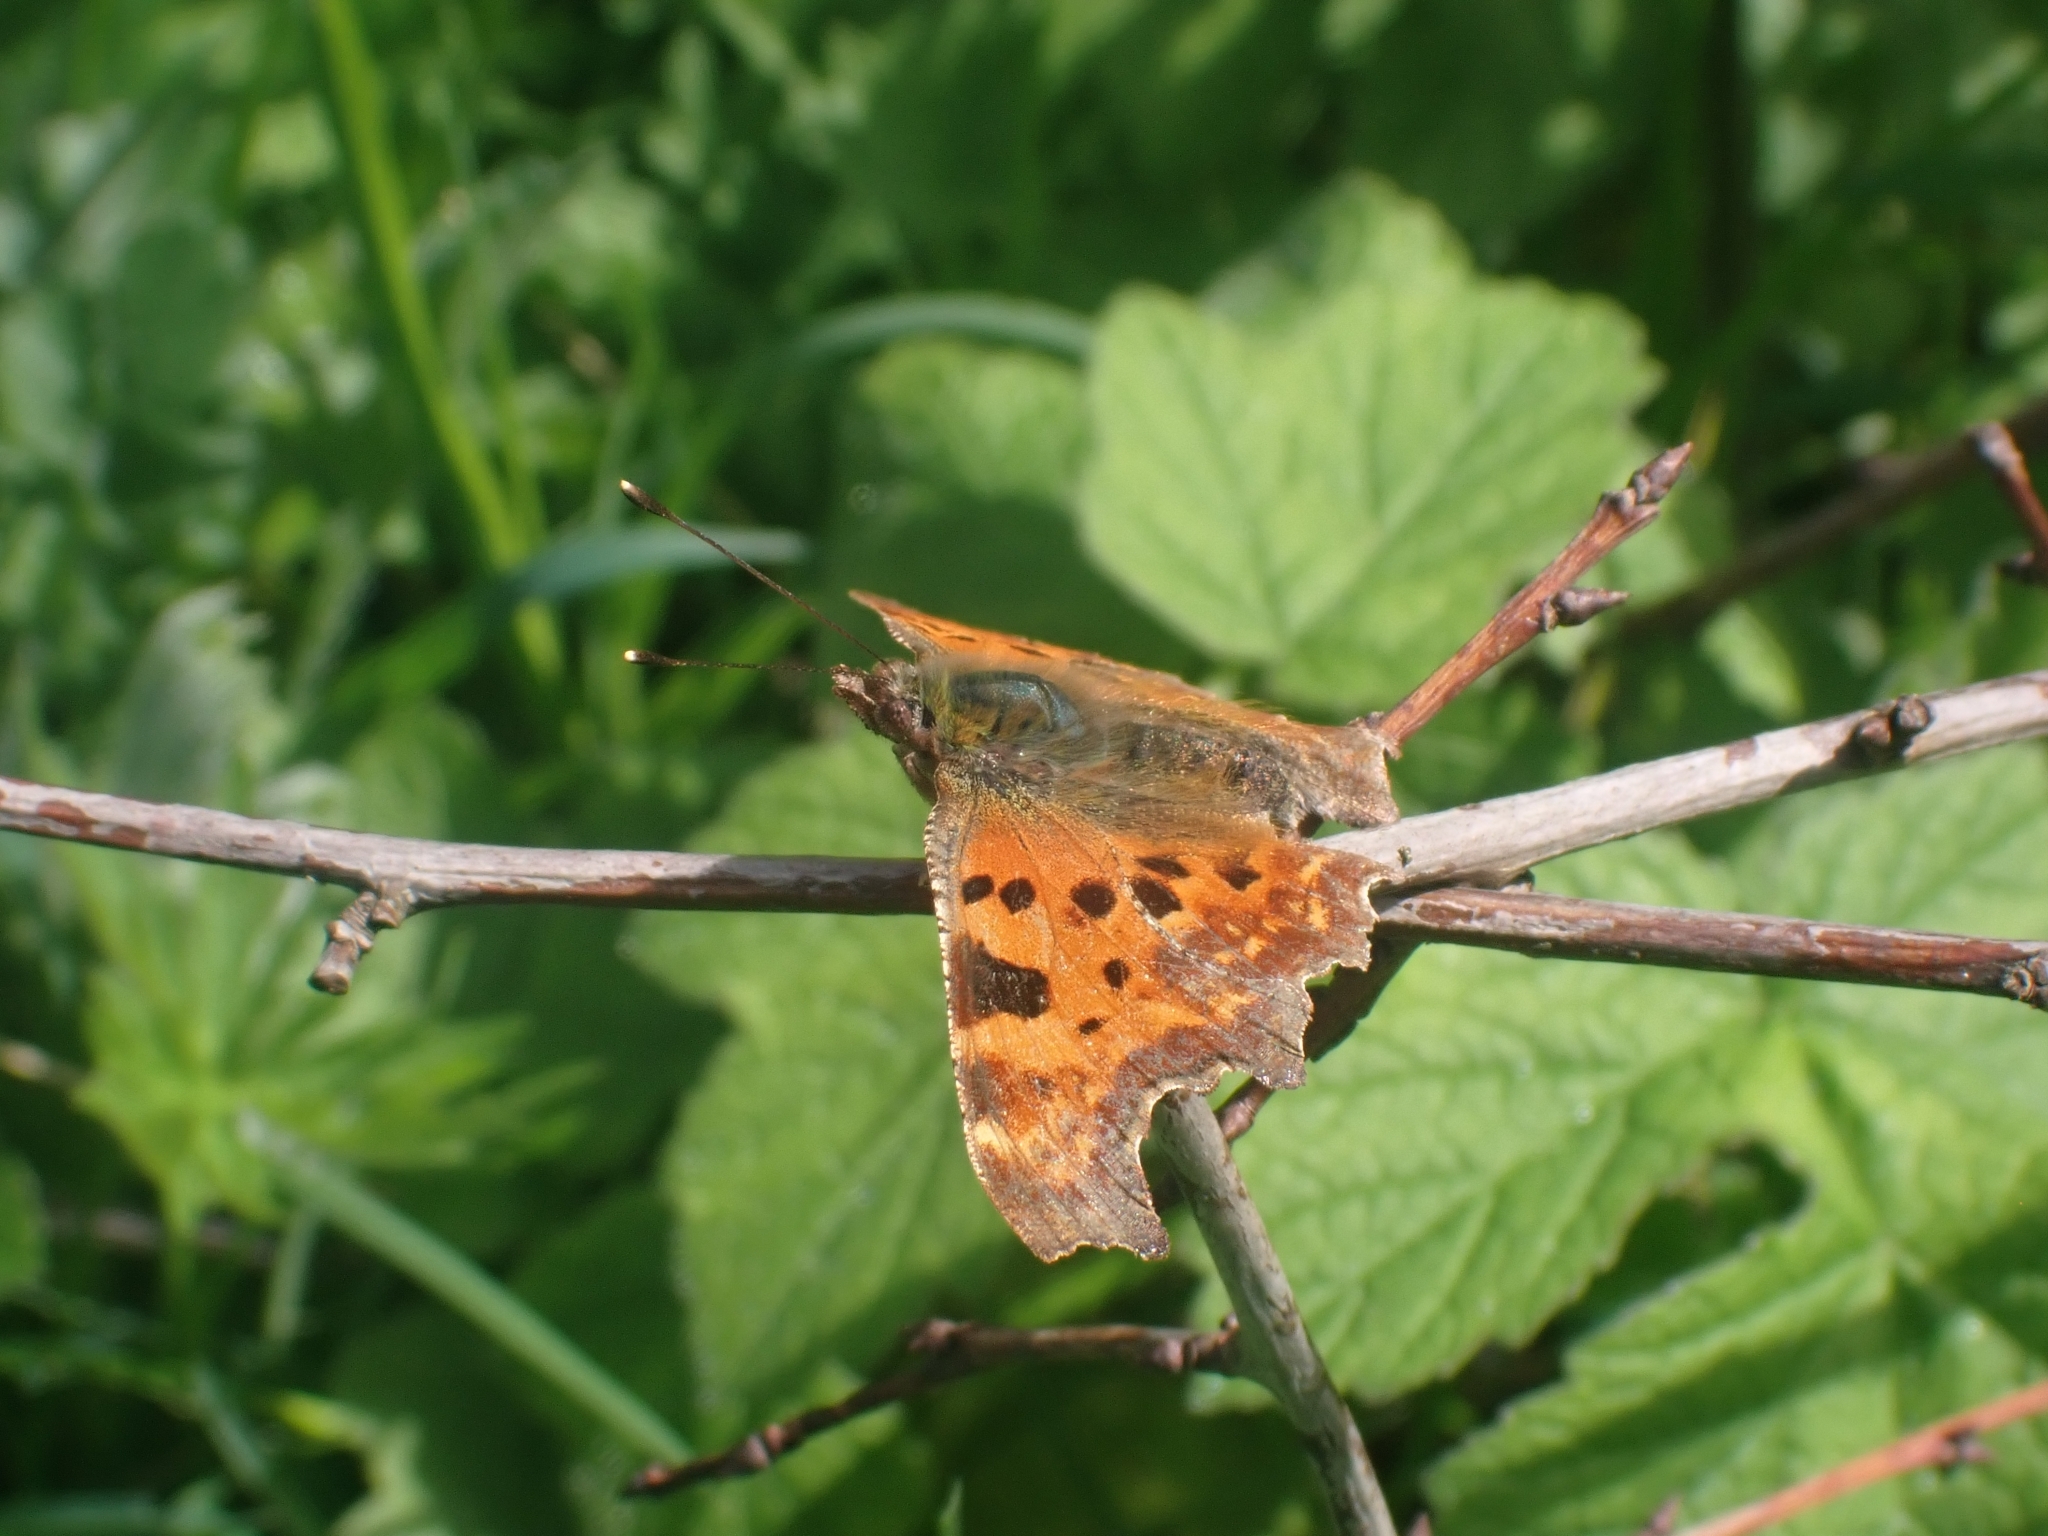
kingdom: Animalia
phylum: Arthropoda
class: Insecta
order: Lepidoptera
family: Nymphalidae
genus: Polygonia
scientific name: Polygonia c-album
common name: Comma
